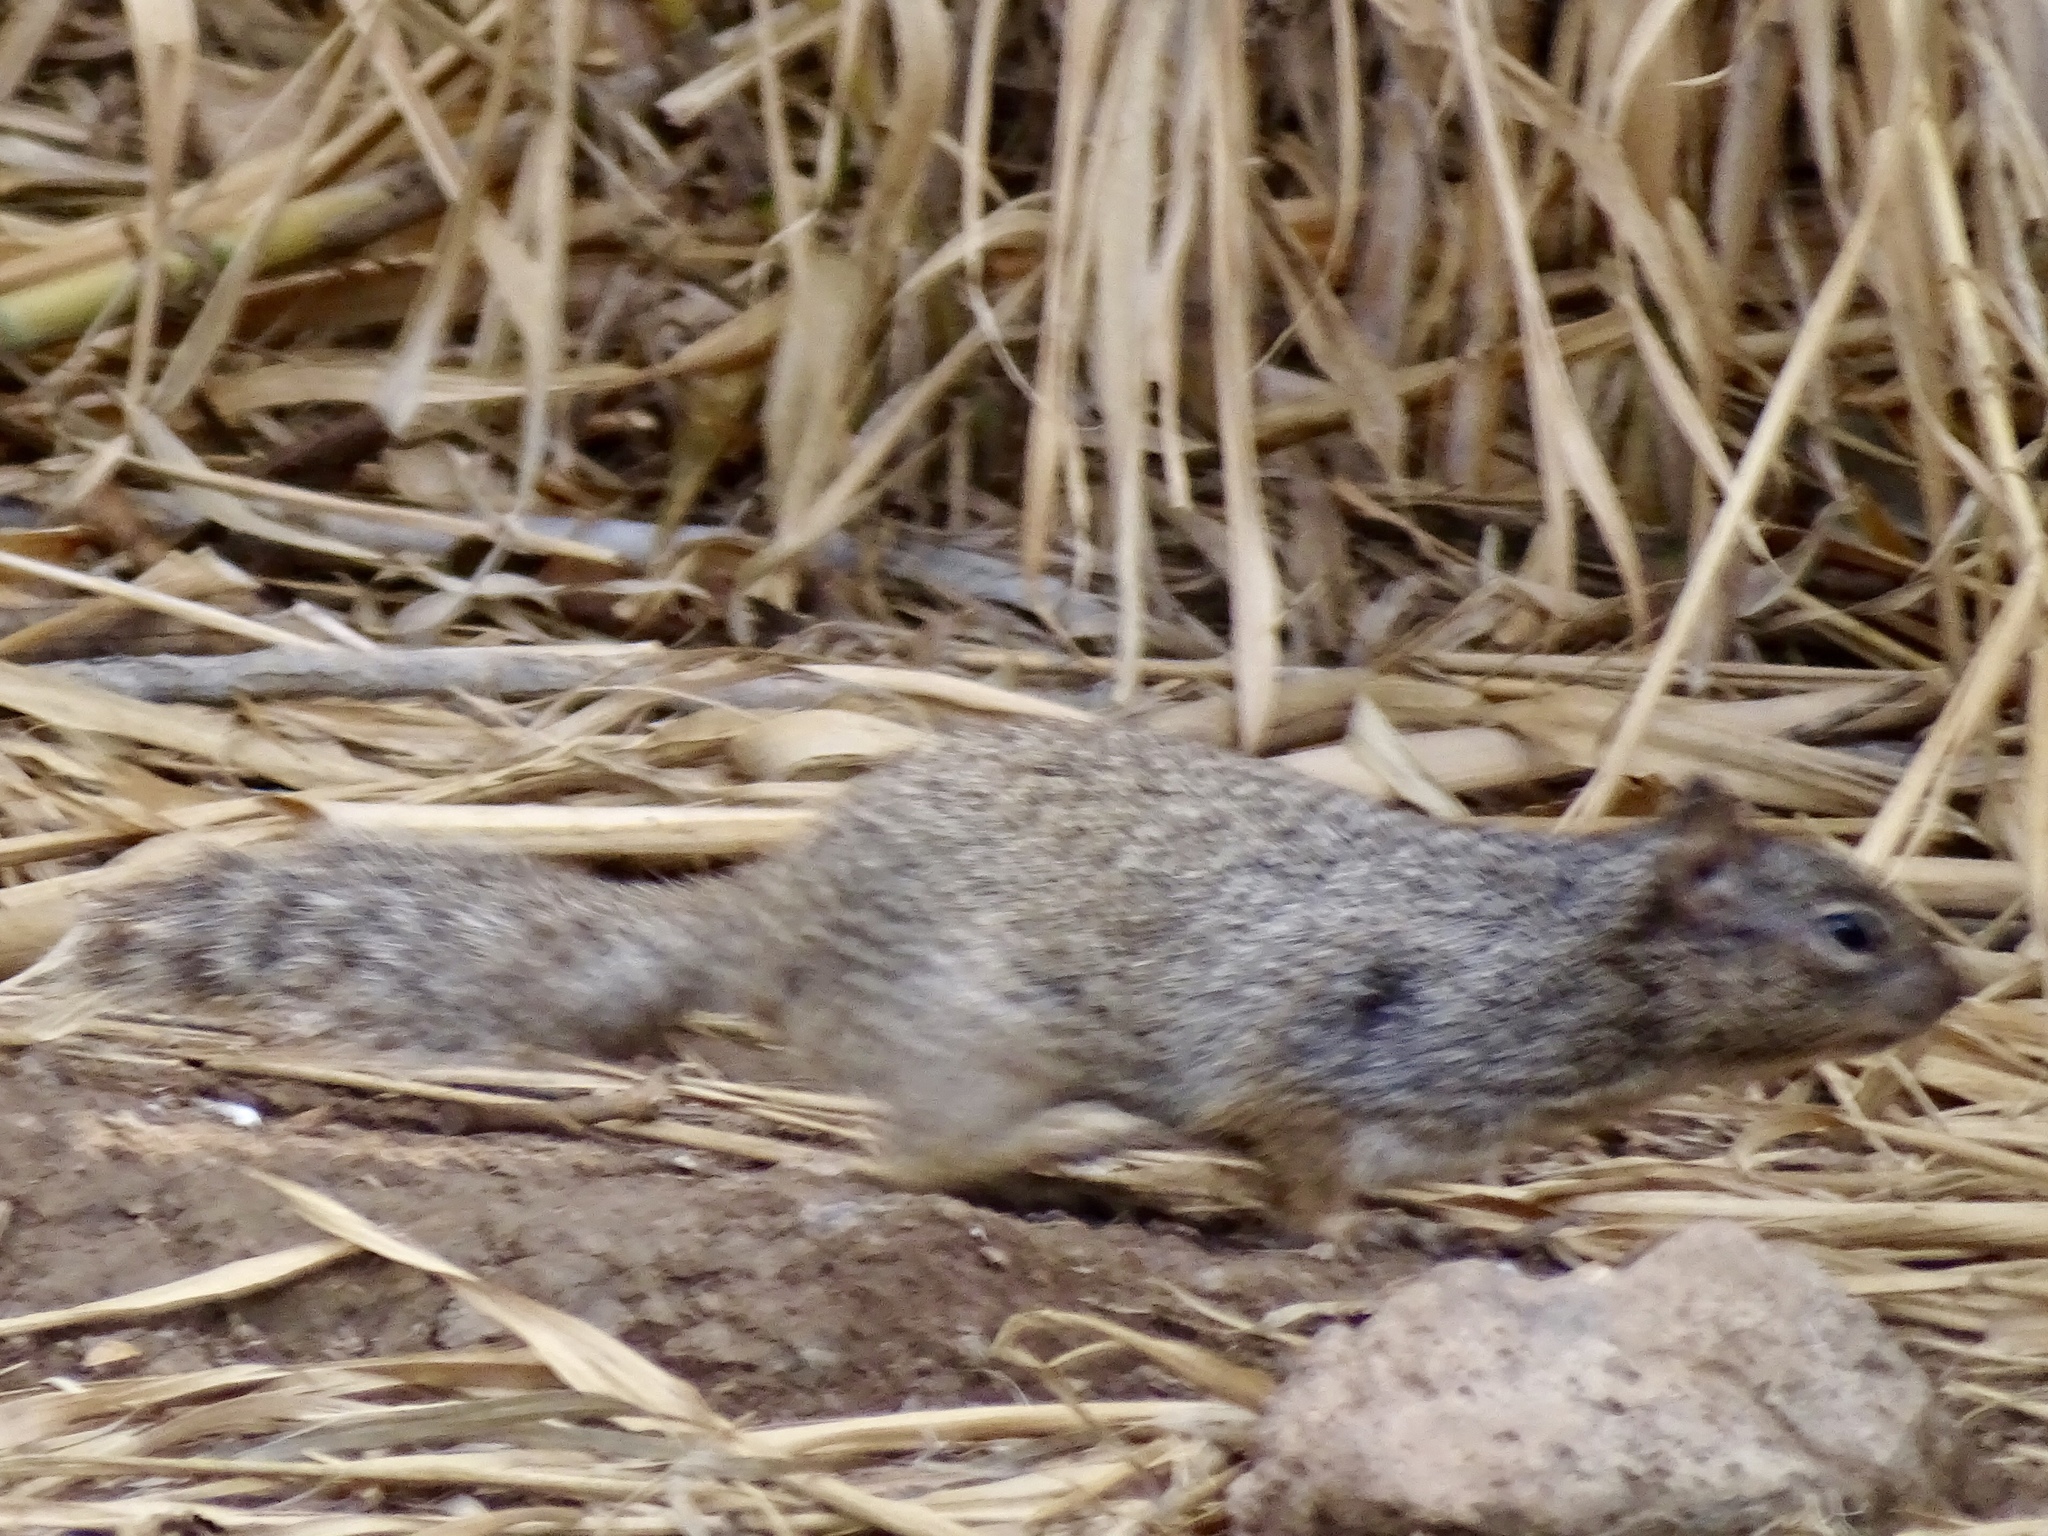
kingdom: Animalia
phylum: Chordata
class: Mammalia
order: Rodentia
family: Sciuridae
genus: Otospermophilus
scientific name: Otospermophilus variegatus
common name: Rock squirrel
